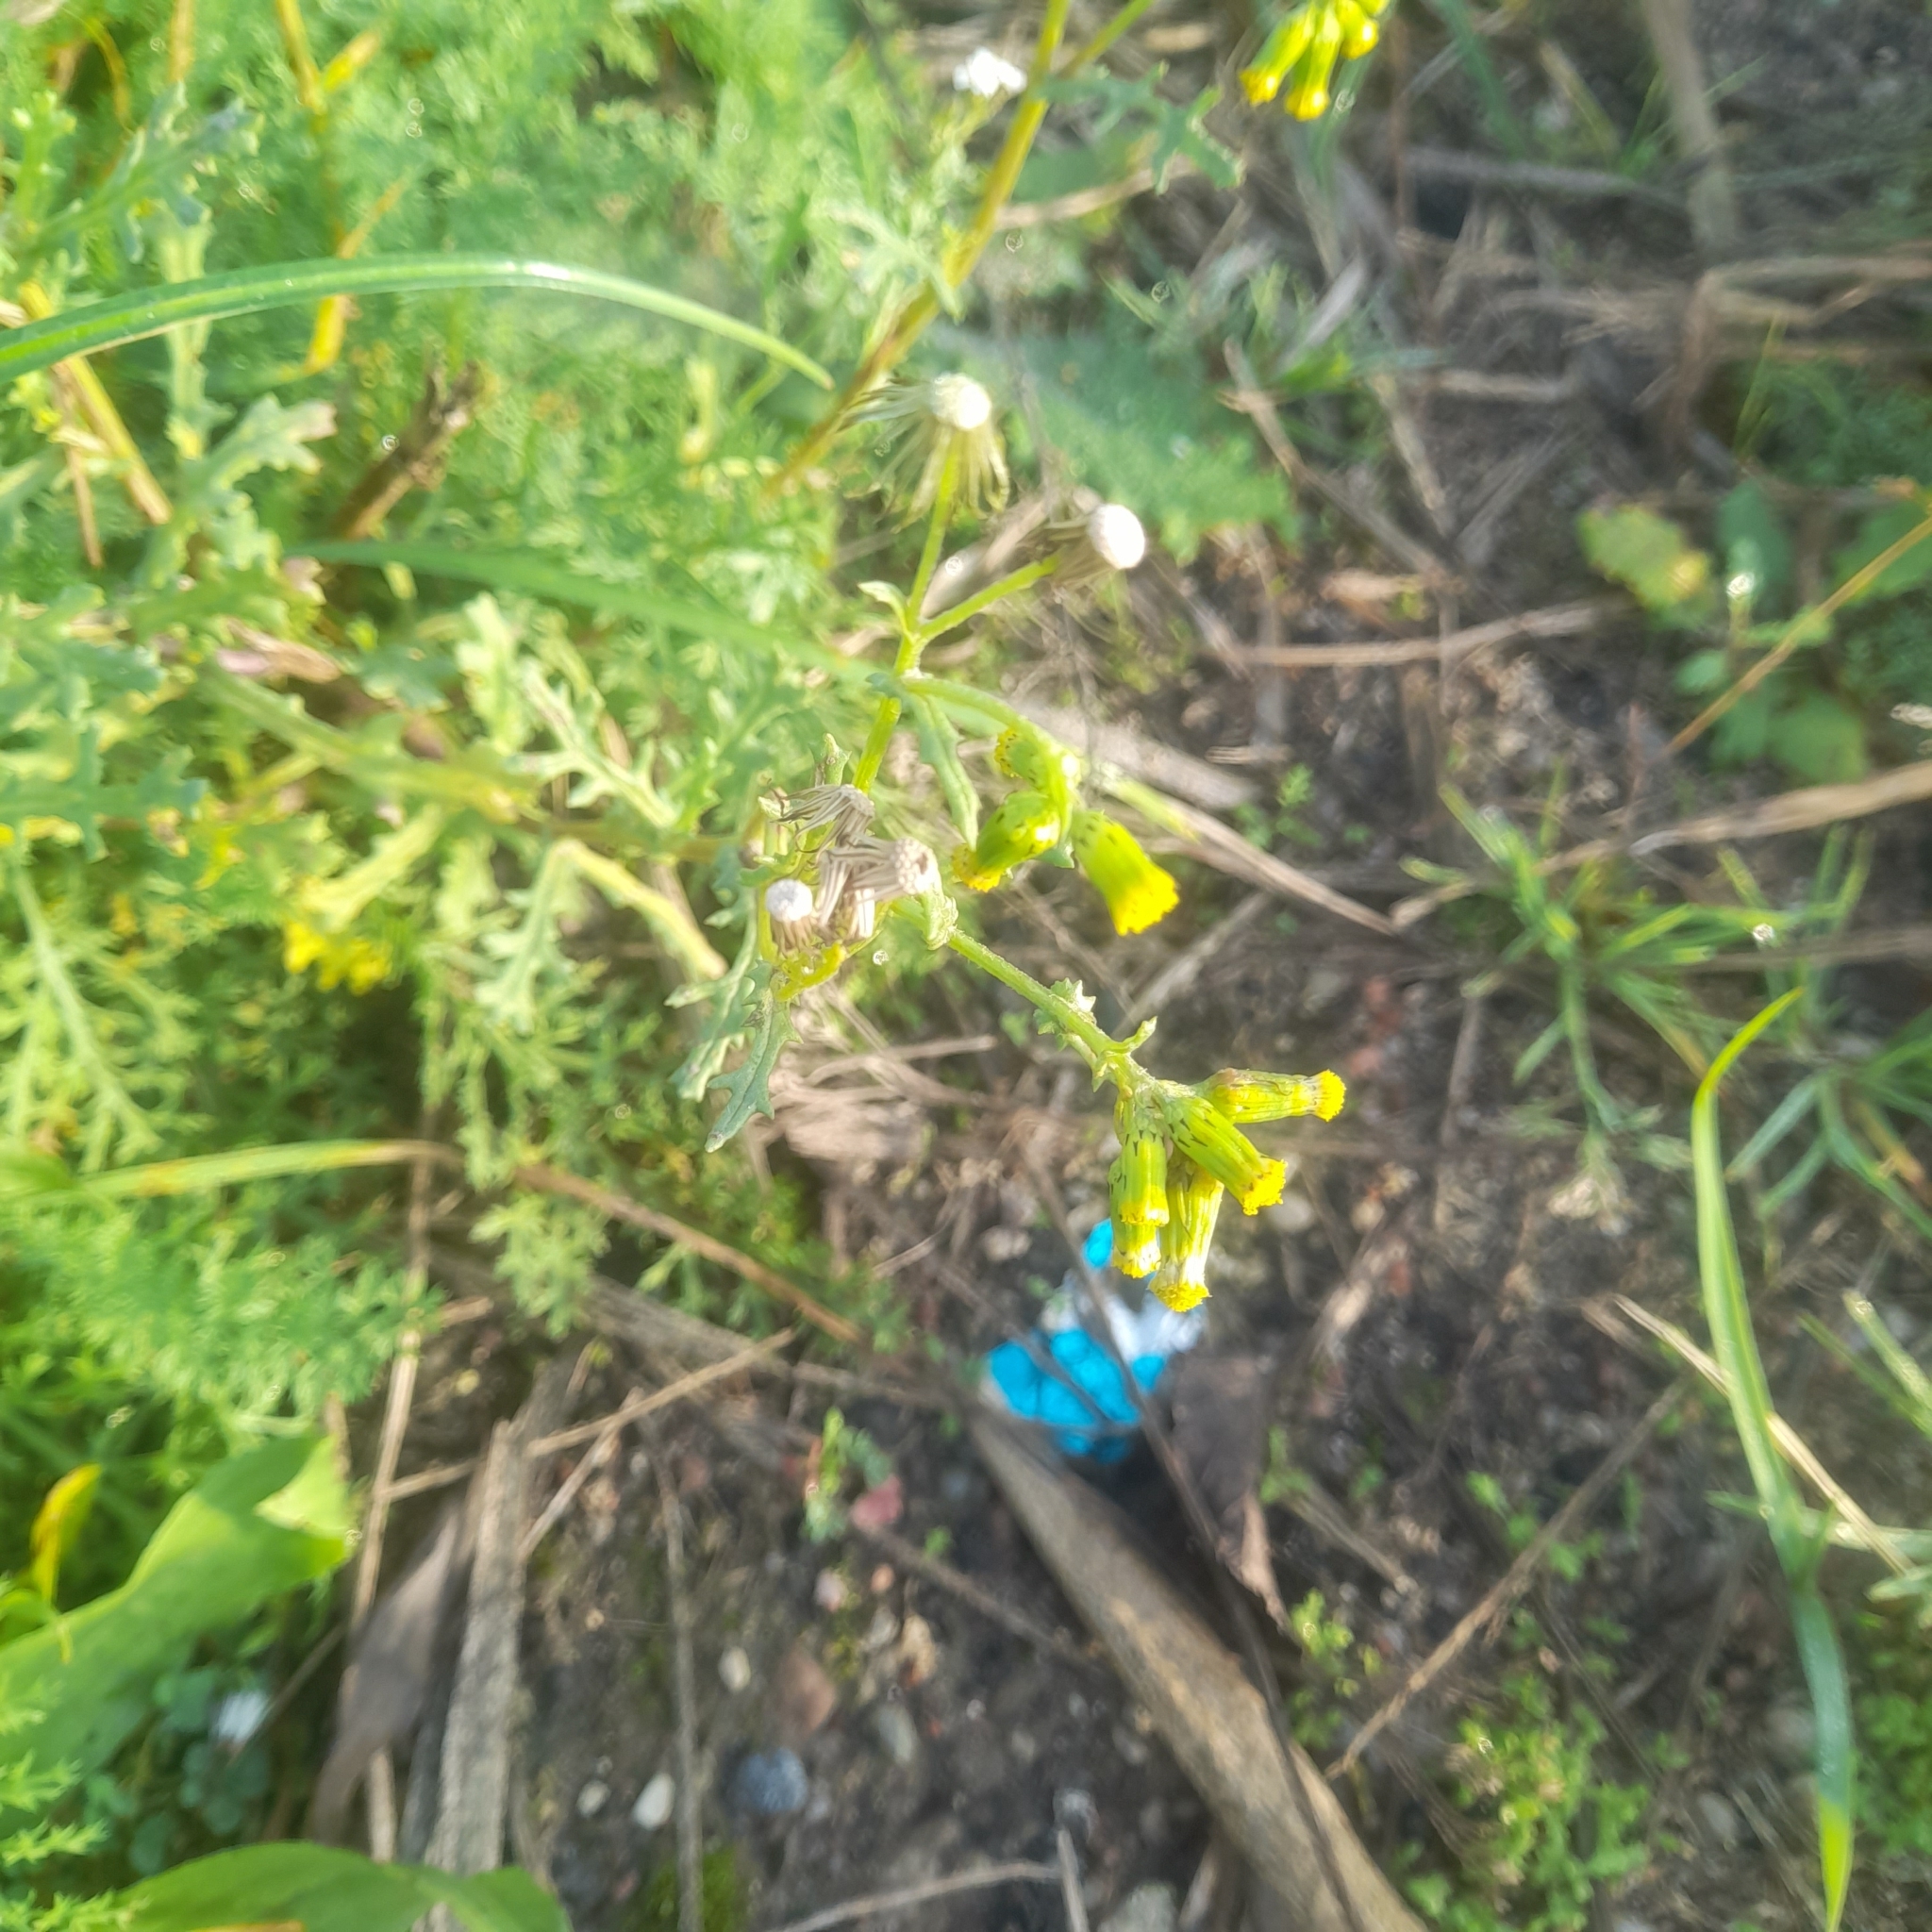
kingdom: Plantae
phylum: Tracheophyta
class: Magnoliopsida
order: Asterales
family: Asteraceae
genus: Senecio
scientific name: Senecio vulgaris
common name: Old-man-in-the-spring
